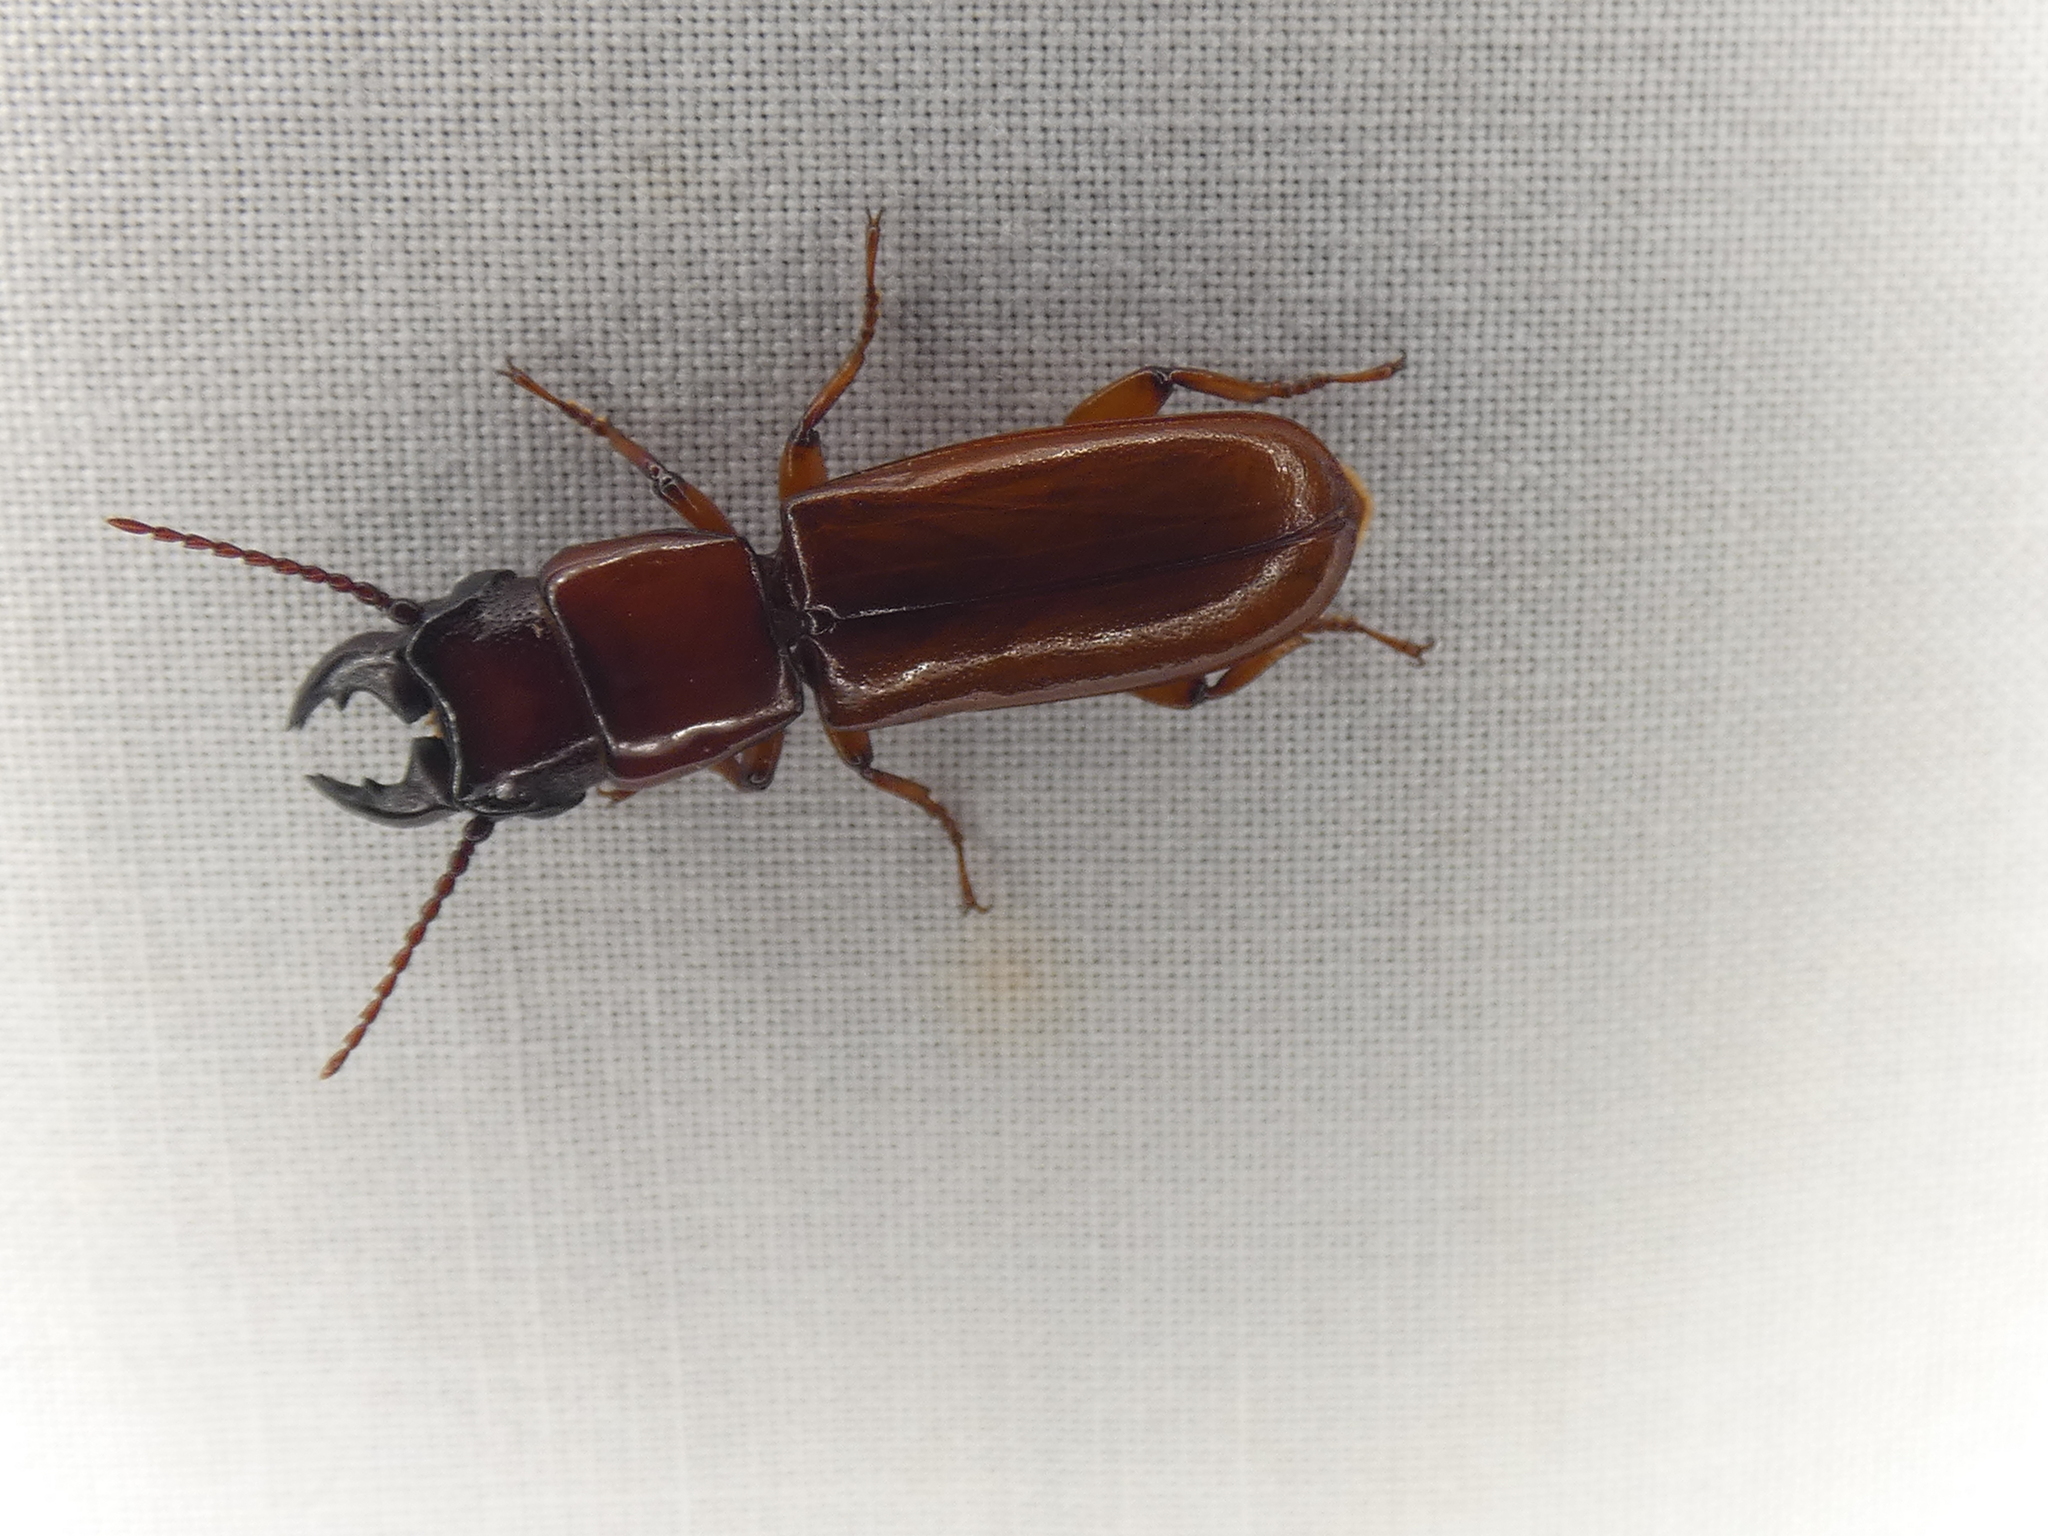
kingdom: Animalia
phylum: Arthropoda
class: Insecta
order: Coleoptera
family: Cerambycidae
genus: Parandra
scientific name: Parandra polita
